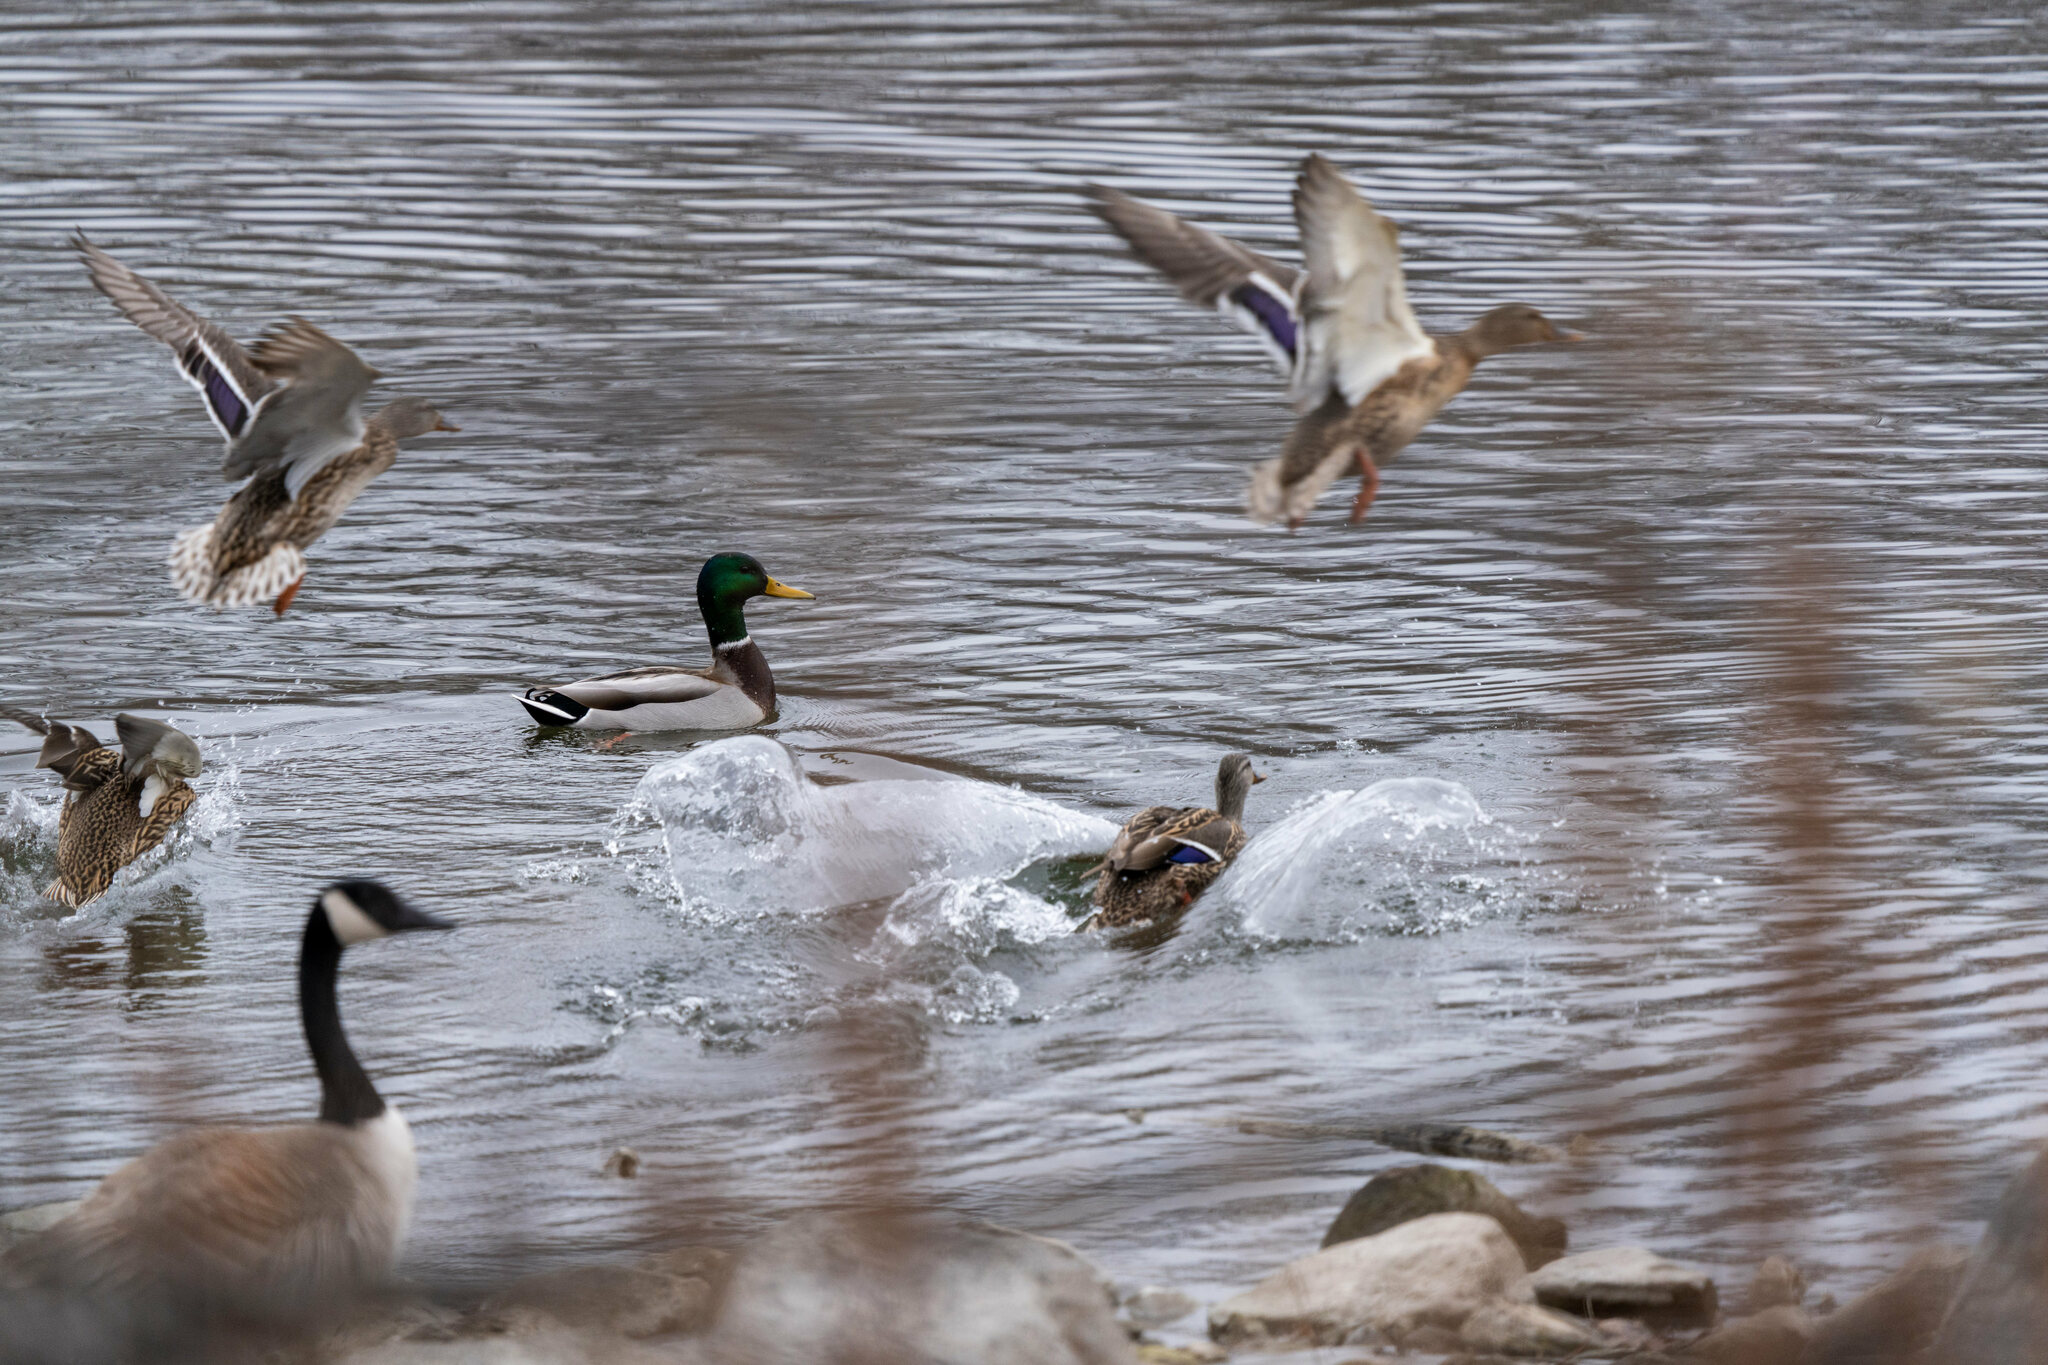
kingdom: Animalia
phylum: Chordata
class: Aves
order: Anseriformes
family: Anatidae
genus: Anas
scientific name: Anas platyrhynchos
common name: Mallard
